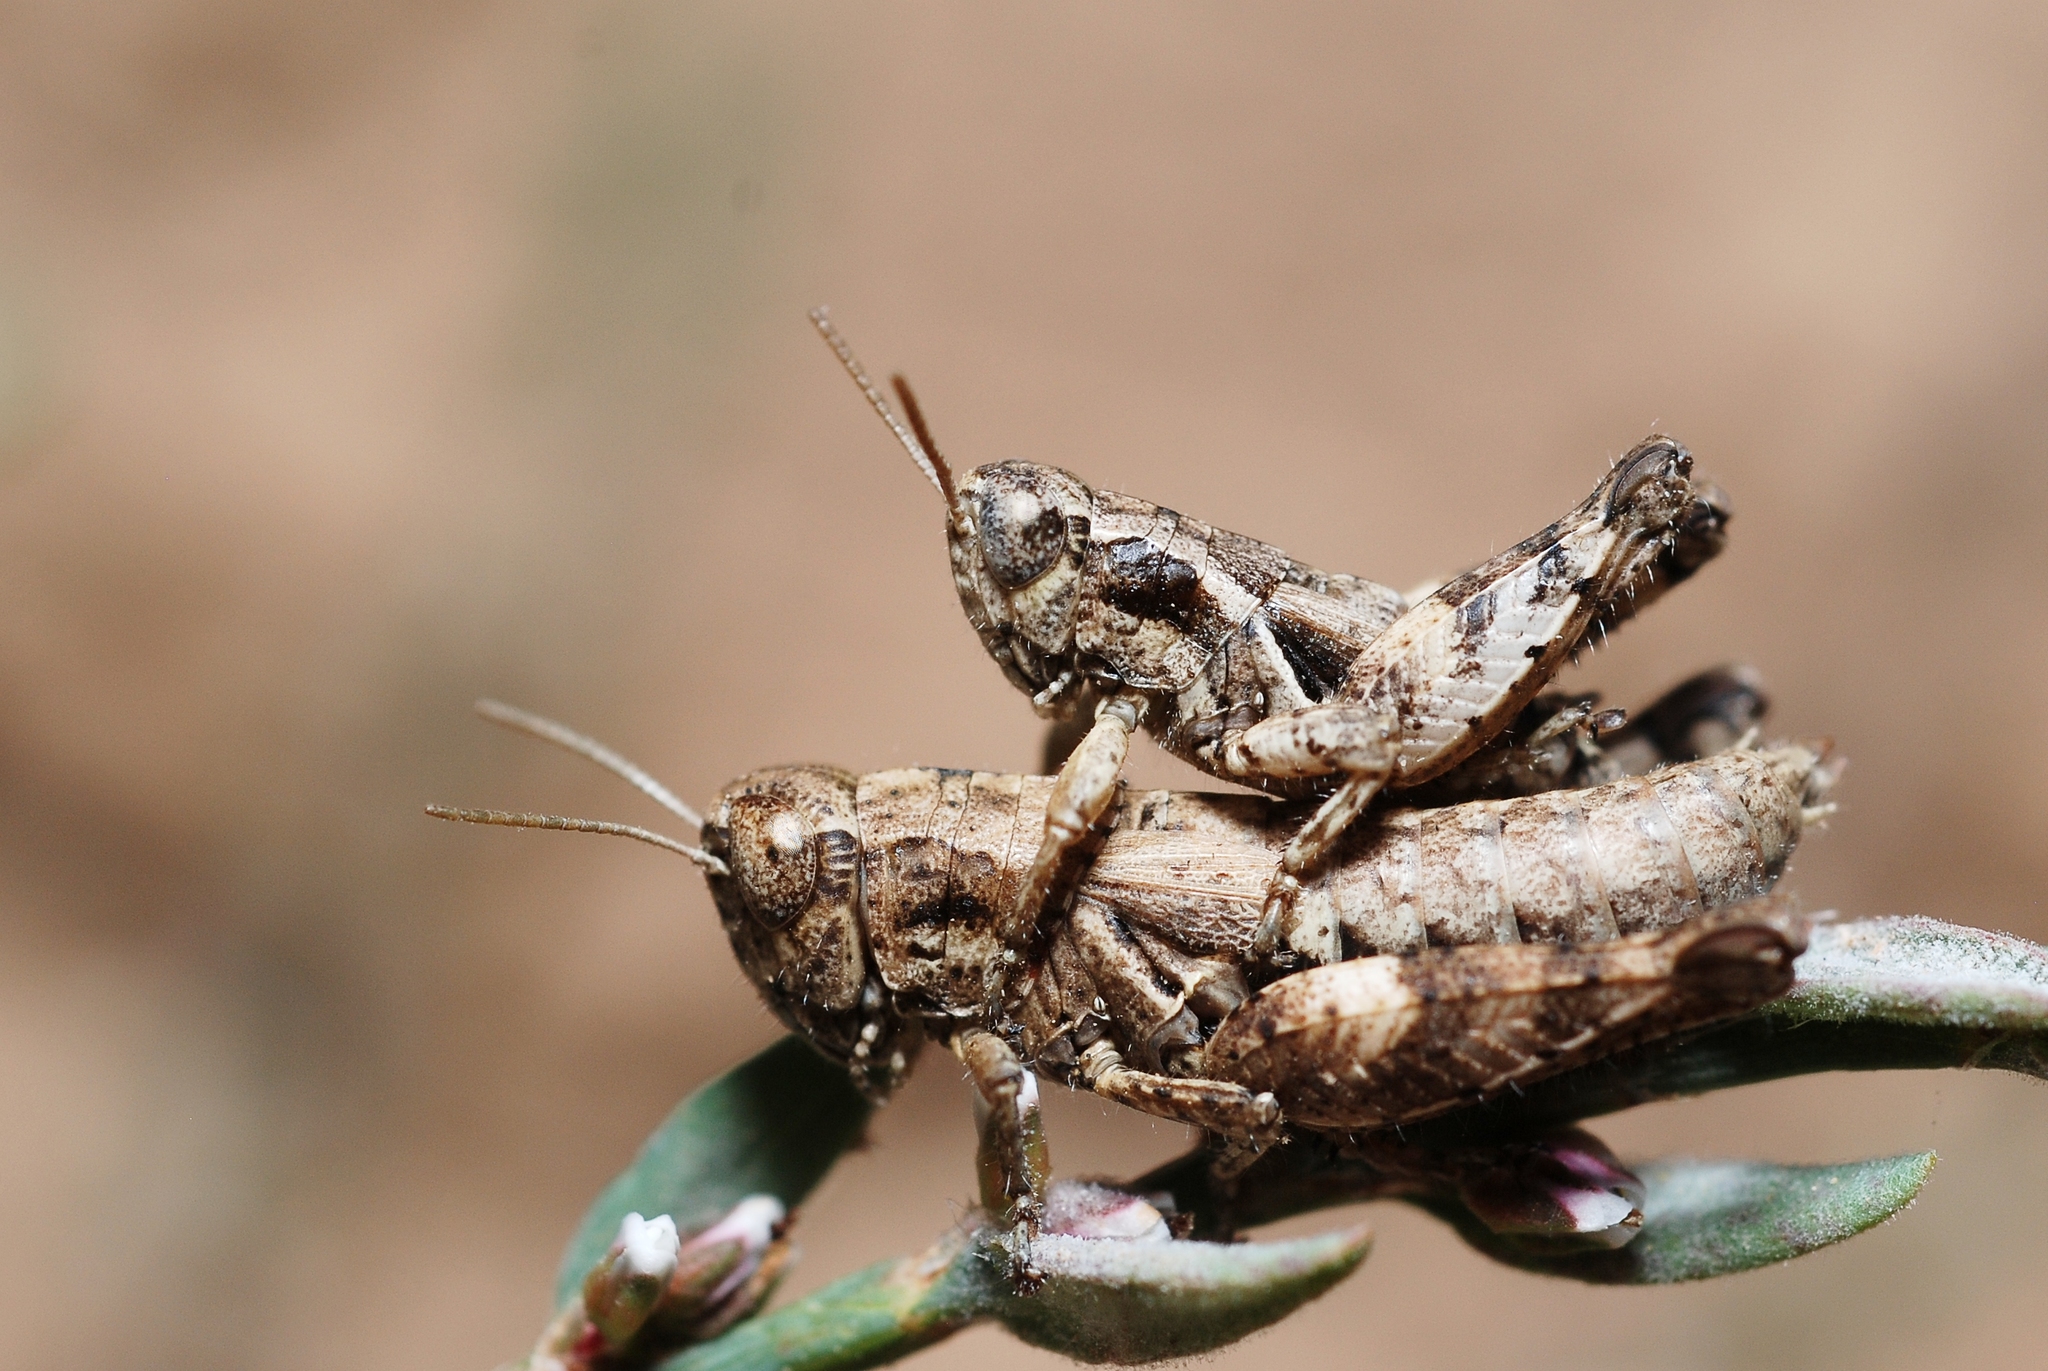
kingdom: Animalia
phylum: Arthropoda
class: Insecta
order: Orthoptera
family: Acrididae
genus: Pezotettix
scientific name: Pezotettix giornae
